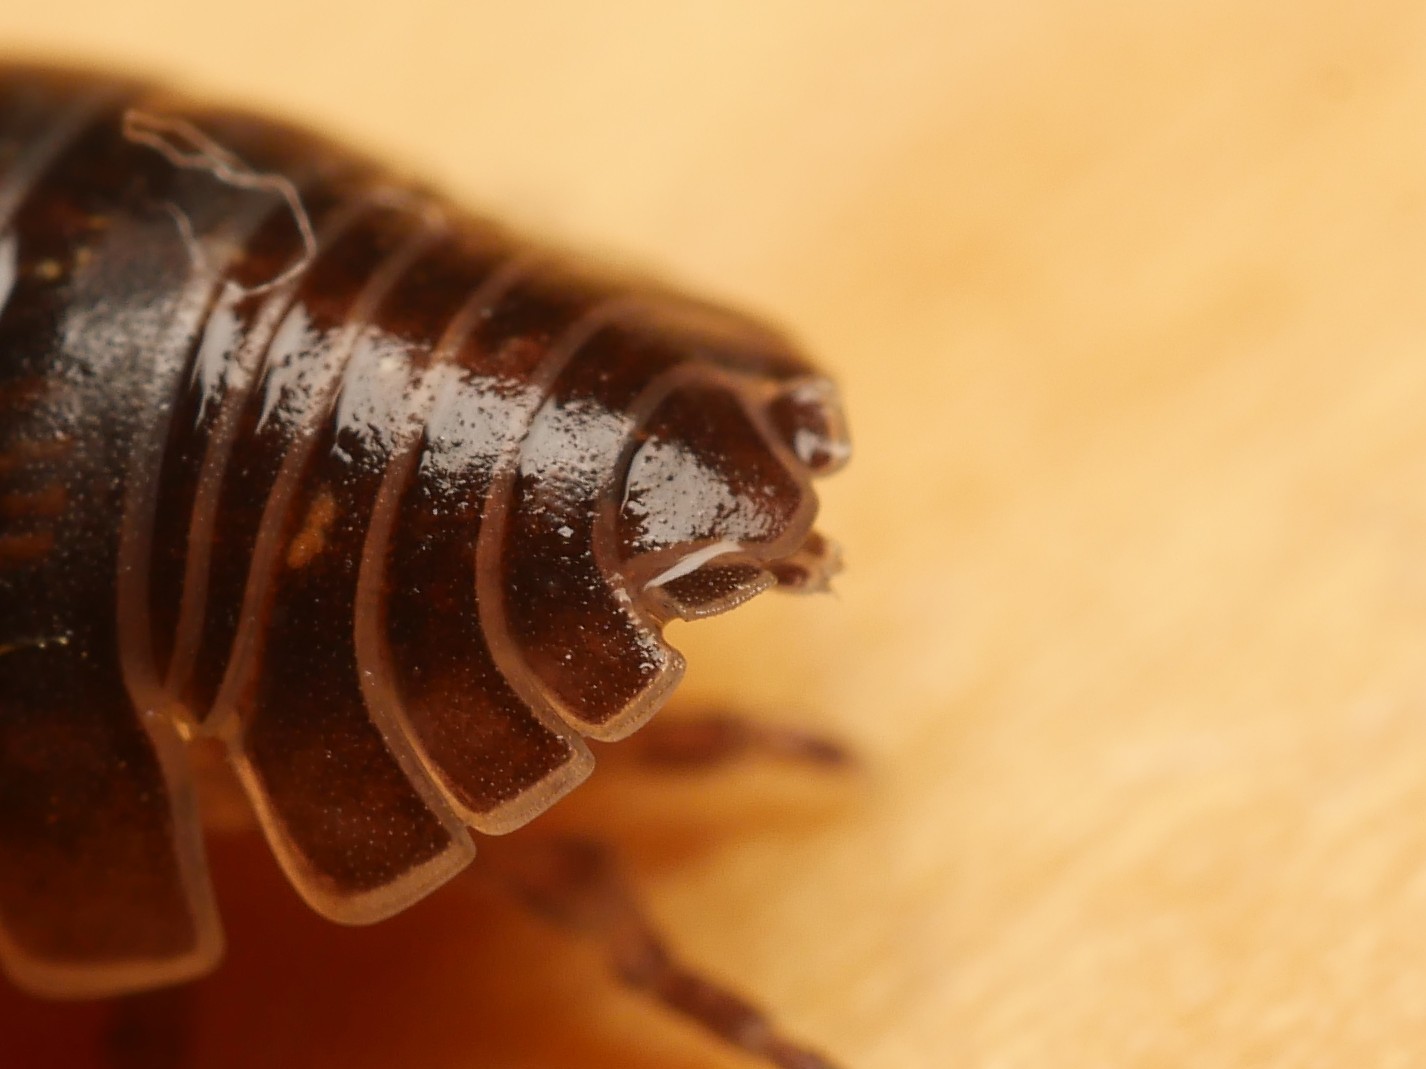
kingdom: Animalia
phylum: Arthropoda
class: Malacostraca
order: Isopoda
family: Armadillidiidae
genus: Armadillidium
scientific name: Armadillidium vulgare
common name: Common pill woodlouse
